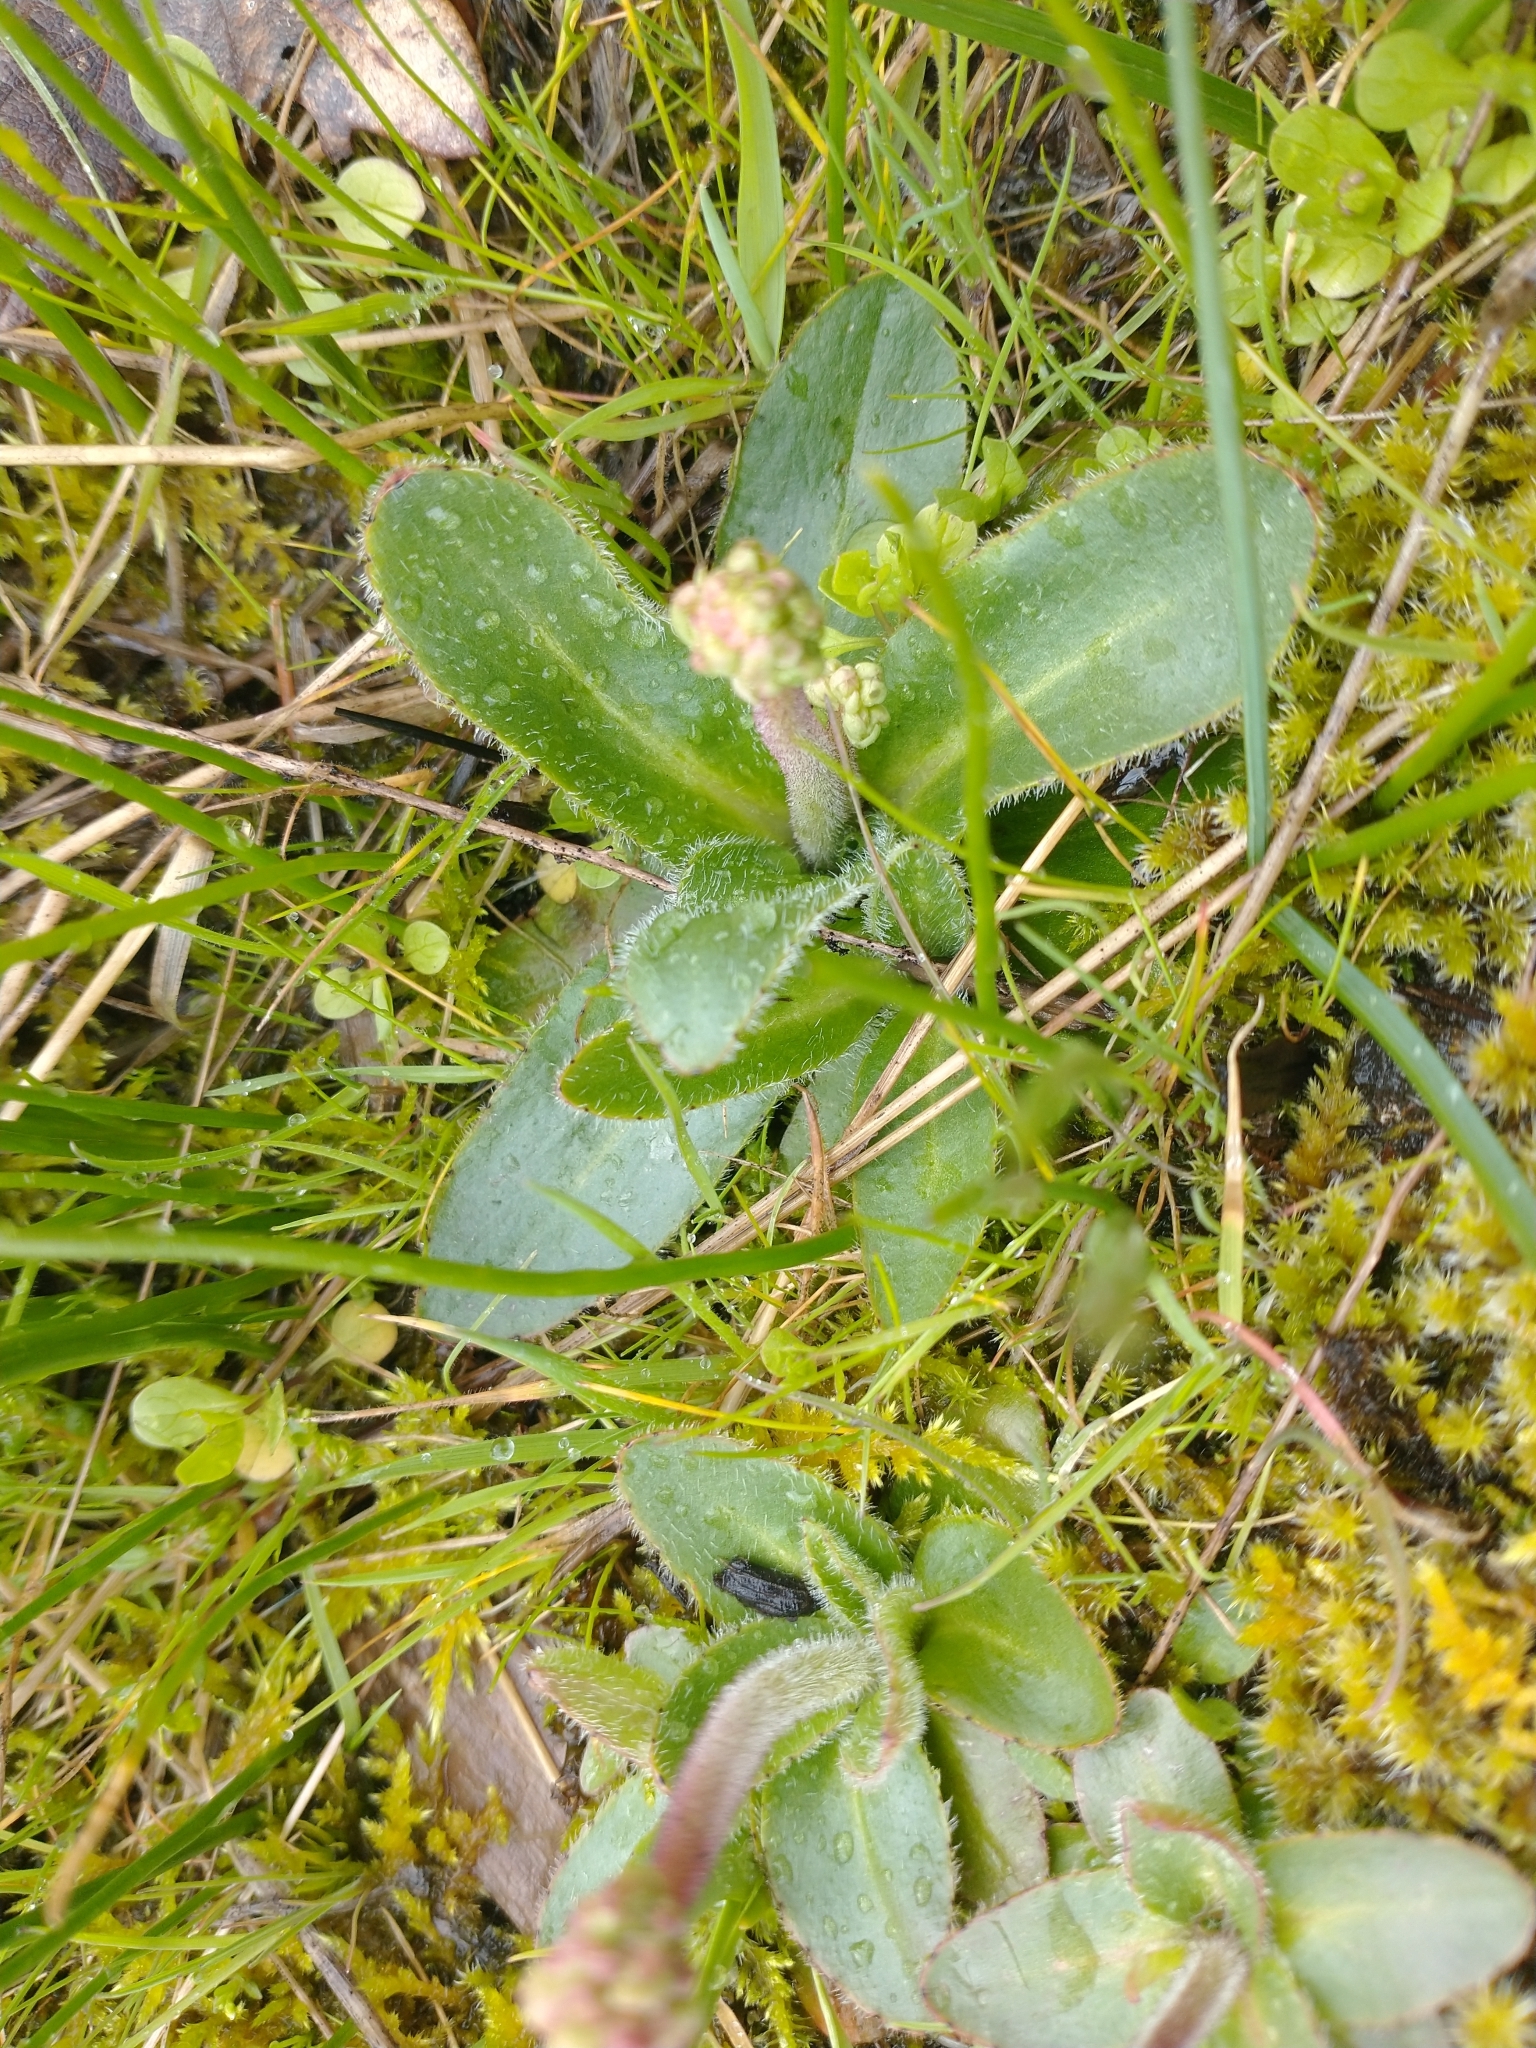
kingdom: Plantae
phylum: Tracheophyta
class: Magnoliopsida
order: Saxifragales
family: Saxifragaceae
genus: Micranthes
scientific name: Micranthes oregana
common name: Bog saxifrage
